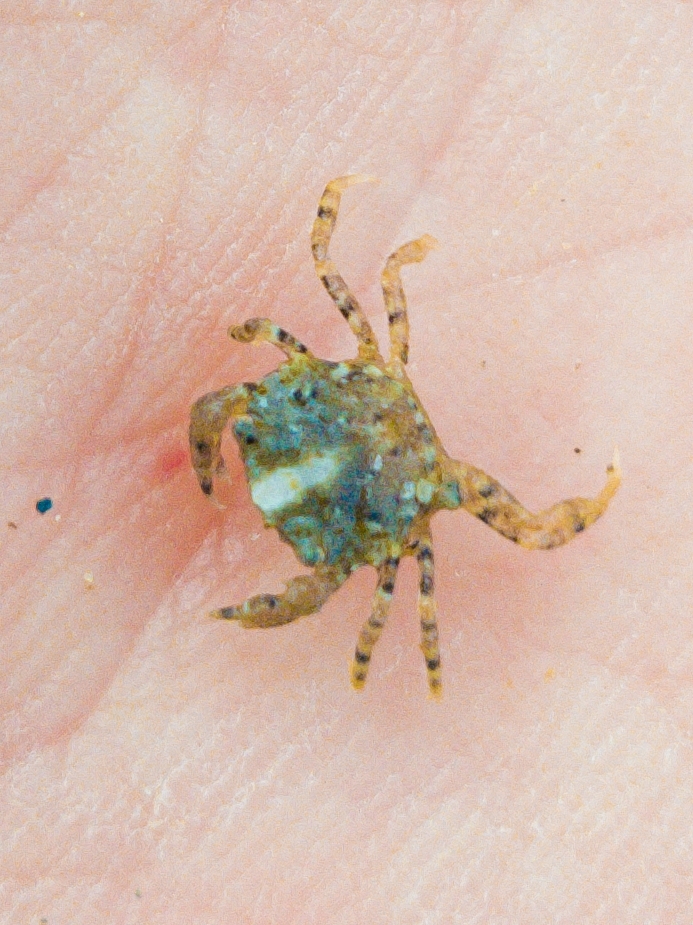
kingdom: Animalia
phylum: Arthropoda
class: Malacostraca
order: Decapoda
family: Carcinidae
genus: Carcinus
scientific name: Carcinus maenas
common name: European green crab
